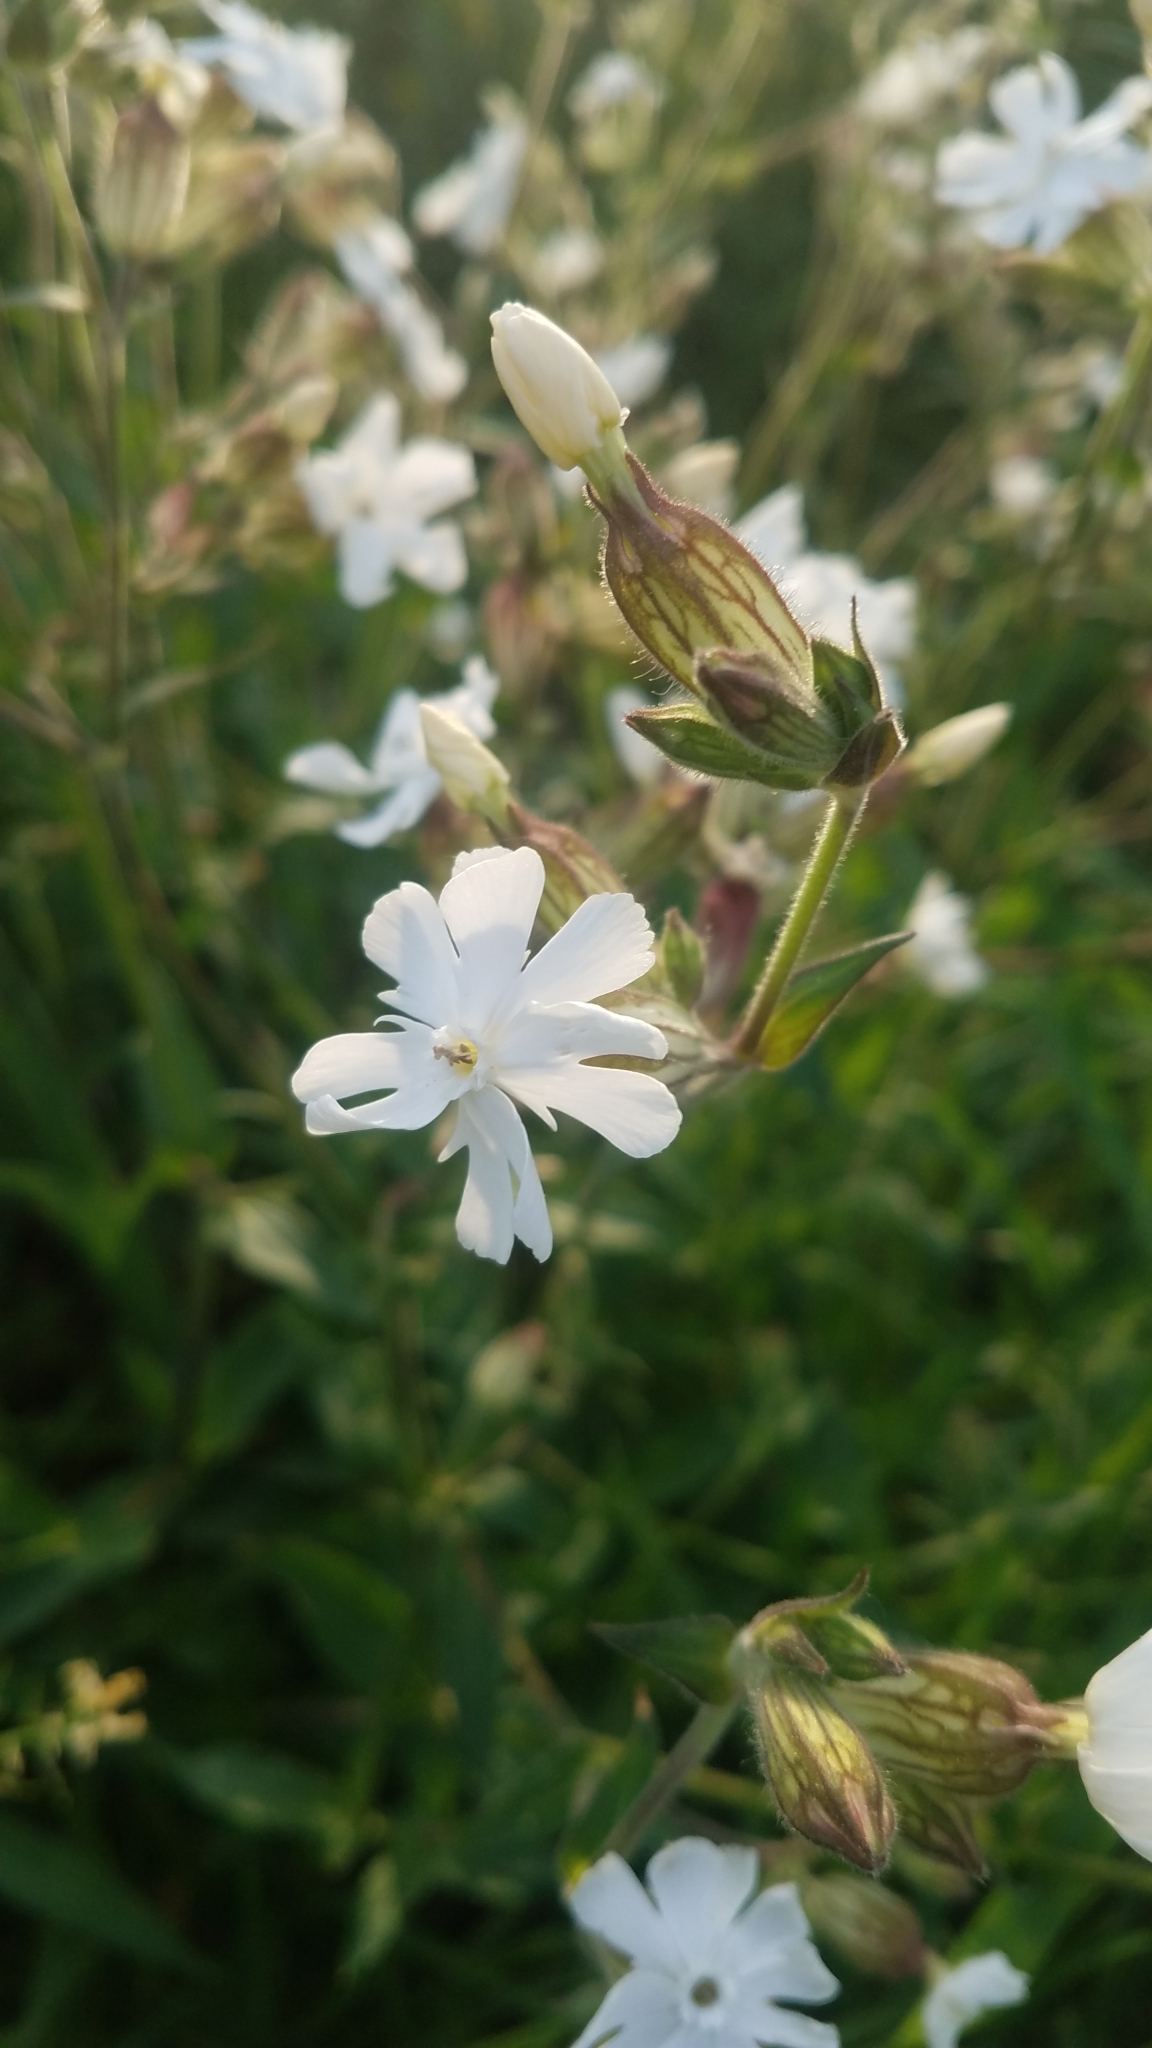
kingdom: Plantae
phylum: Tracheophyta
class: Magnoliopsida
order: Caryophyllales
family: Caryophyllaceae
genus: Silene
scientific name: Silene latifolia
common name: White campion
